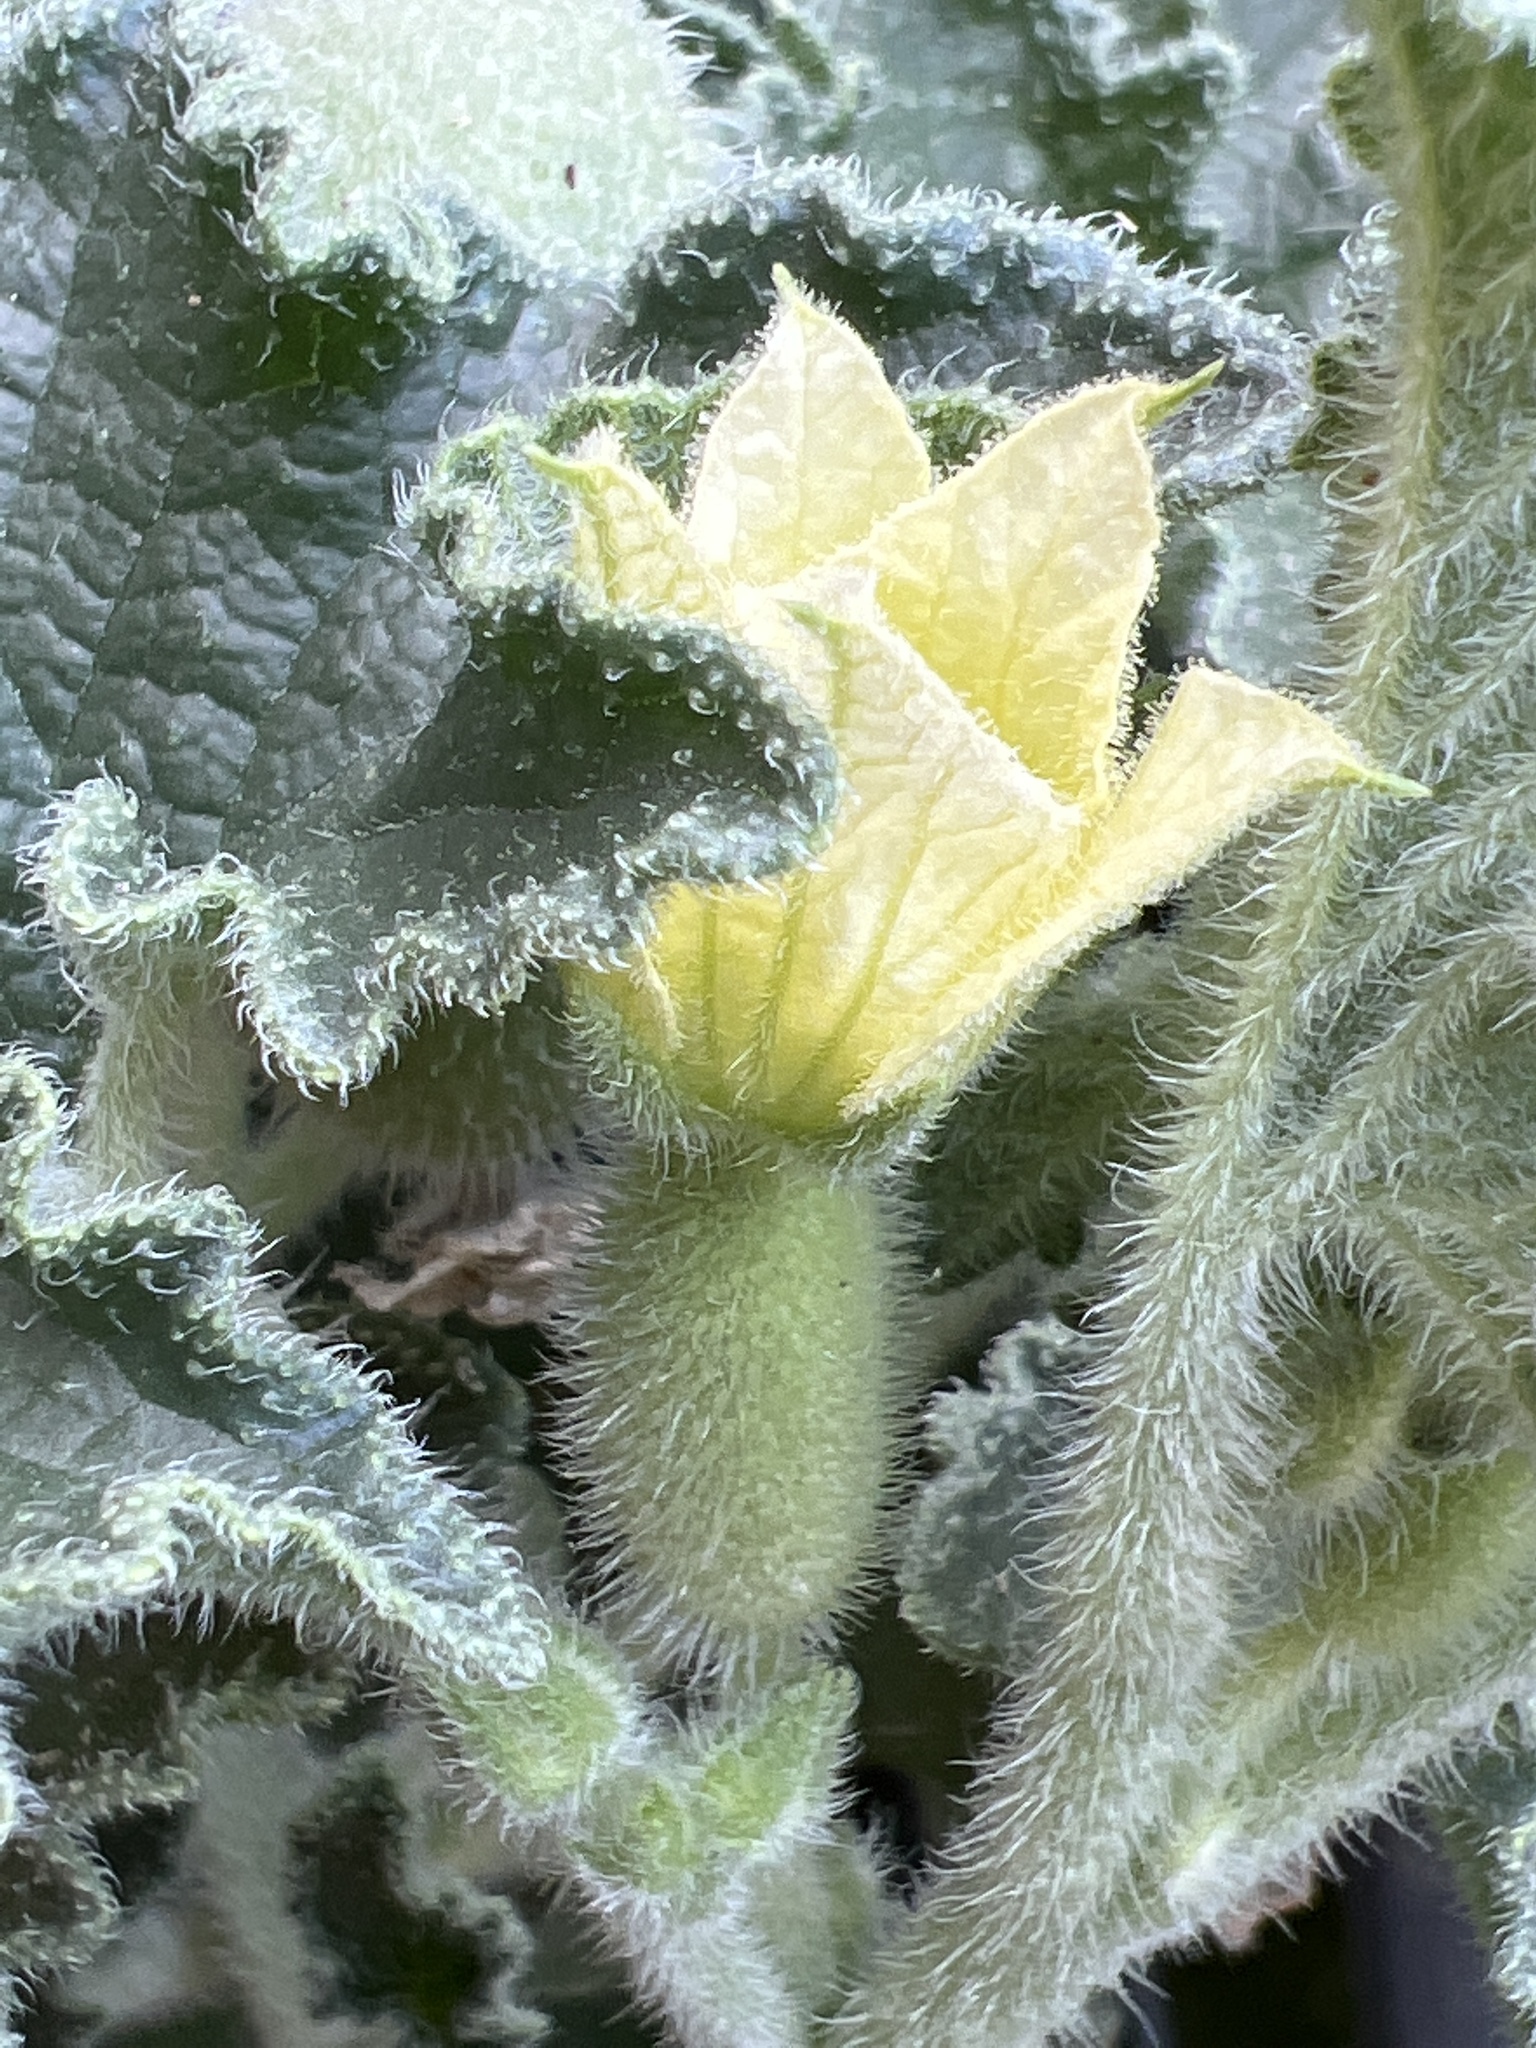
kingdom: Plantae
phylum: Tracheophyta
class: Magnoliopsida
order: Cucurbitales
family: Cucurbitaceae
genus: Ecballium
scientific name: Ecballium elaterium
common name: Squirting cucumber
